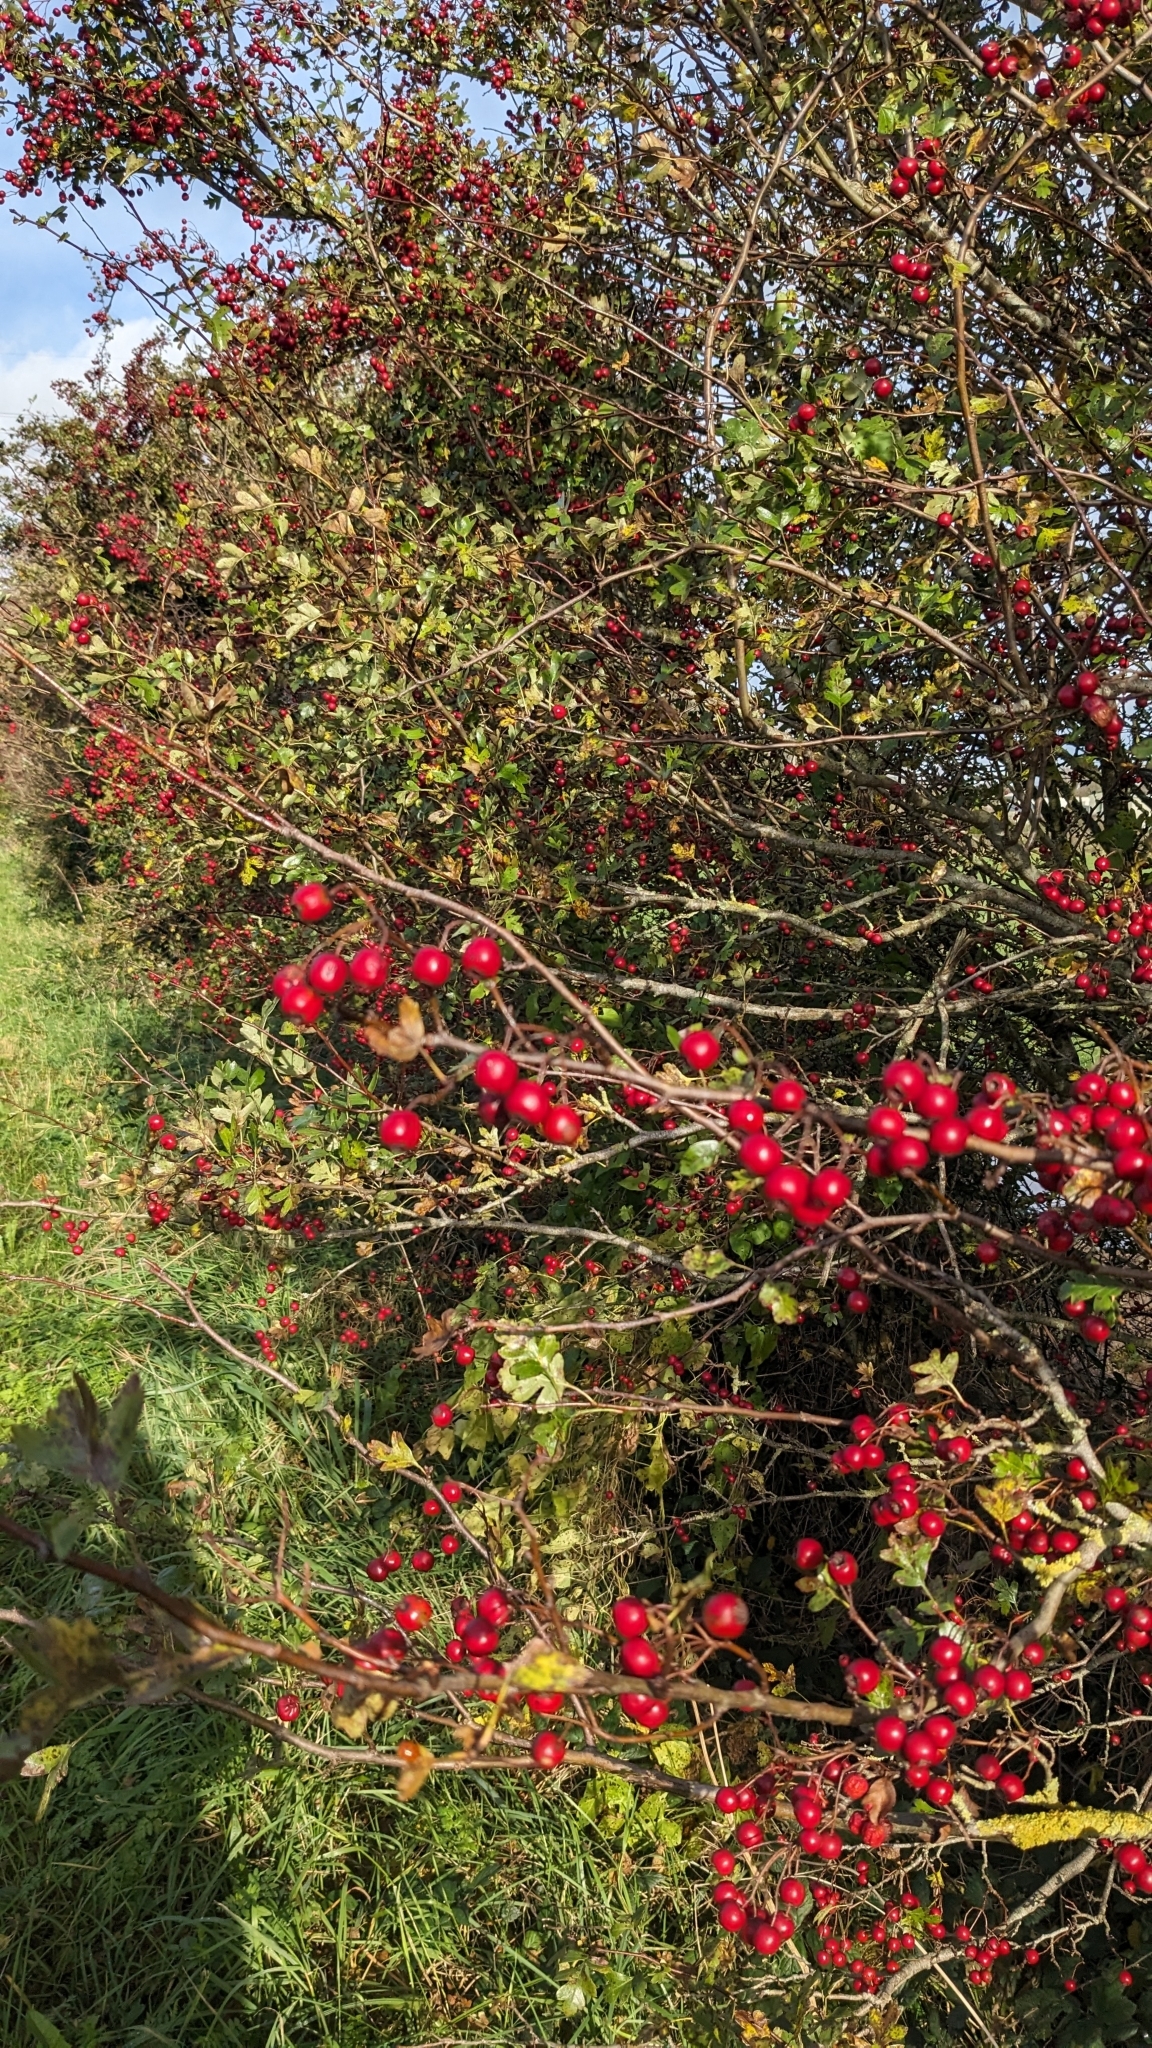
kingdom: Plantae
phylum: Tracheophyta
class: Magnoliopsida
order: Rosales
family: Rosaceae
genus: Crataegus
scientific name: Crataegus monogyna
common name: Hawthorn
